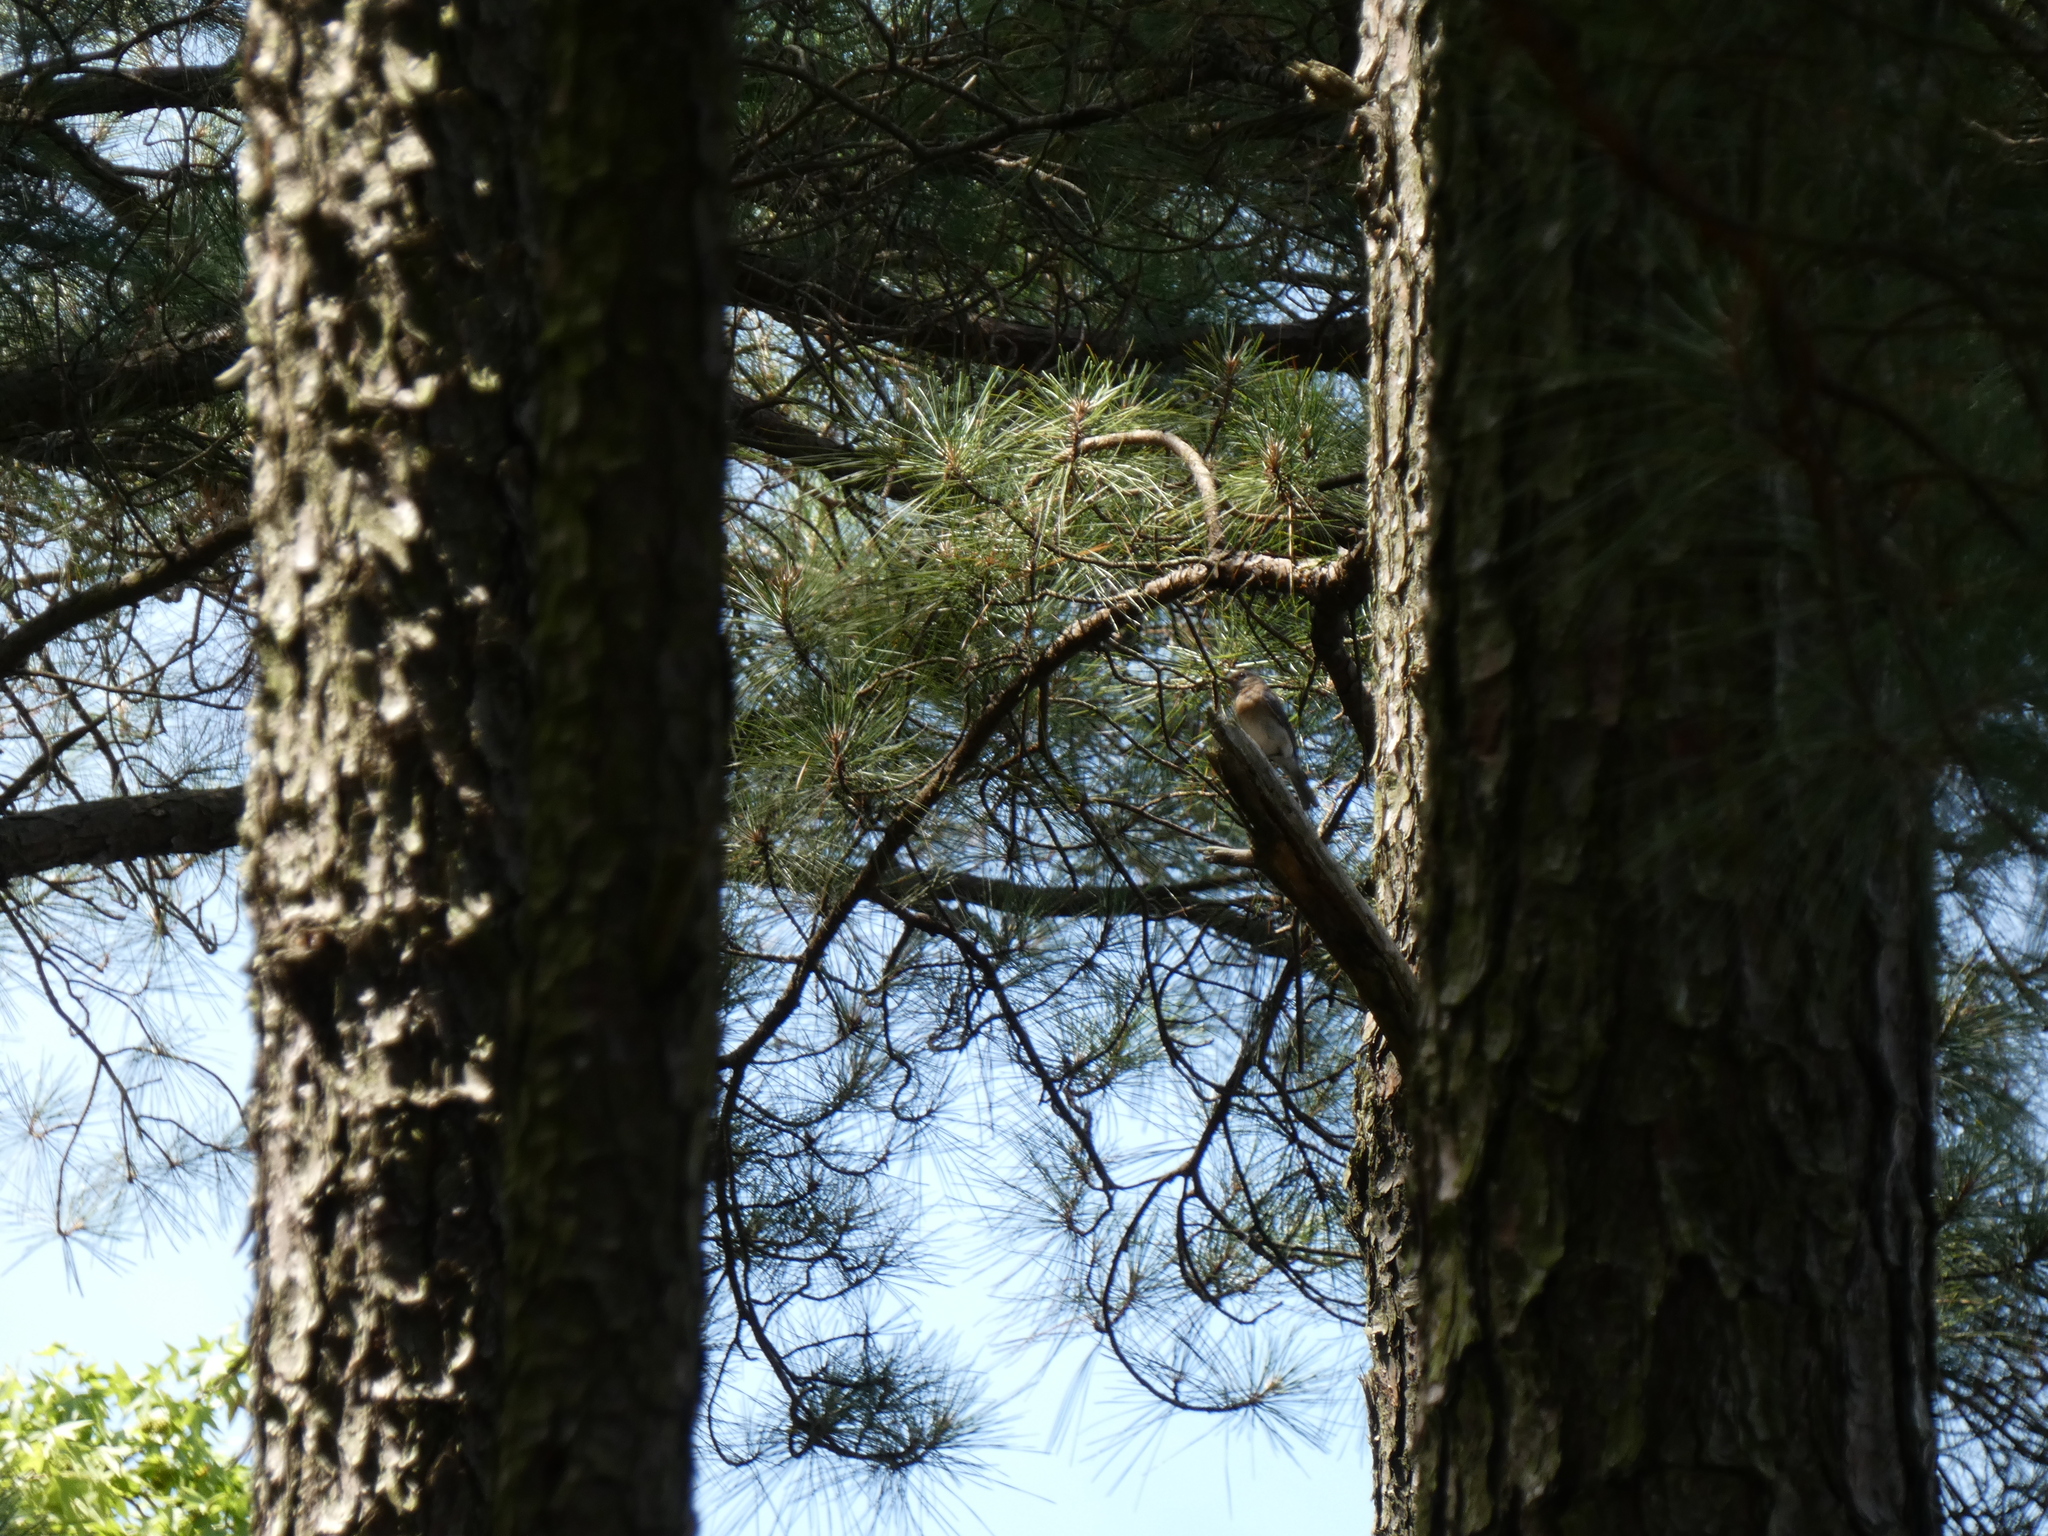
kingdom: Animalia
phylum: Chordata
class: Aves
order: Passeriformes
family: Turdidae
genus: Sialia
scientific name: Sialia sialis
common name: Eastern bluebird
